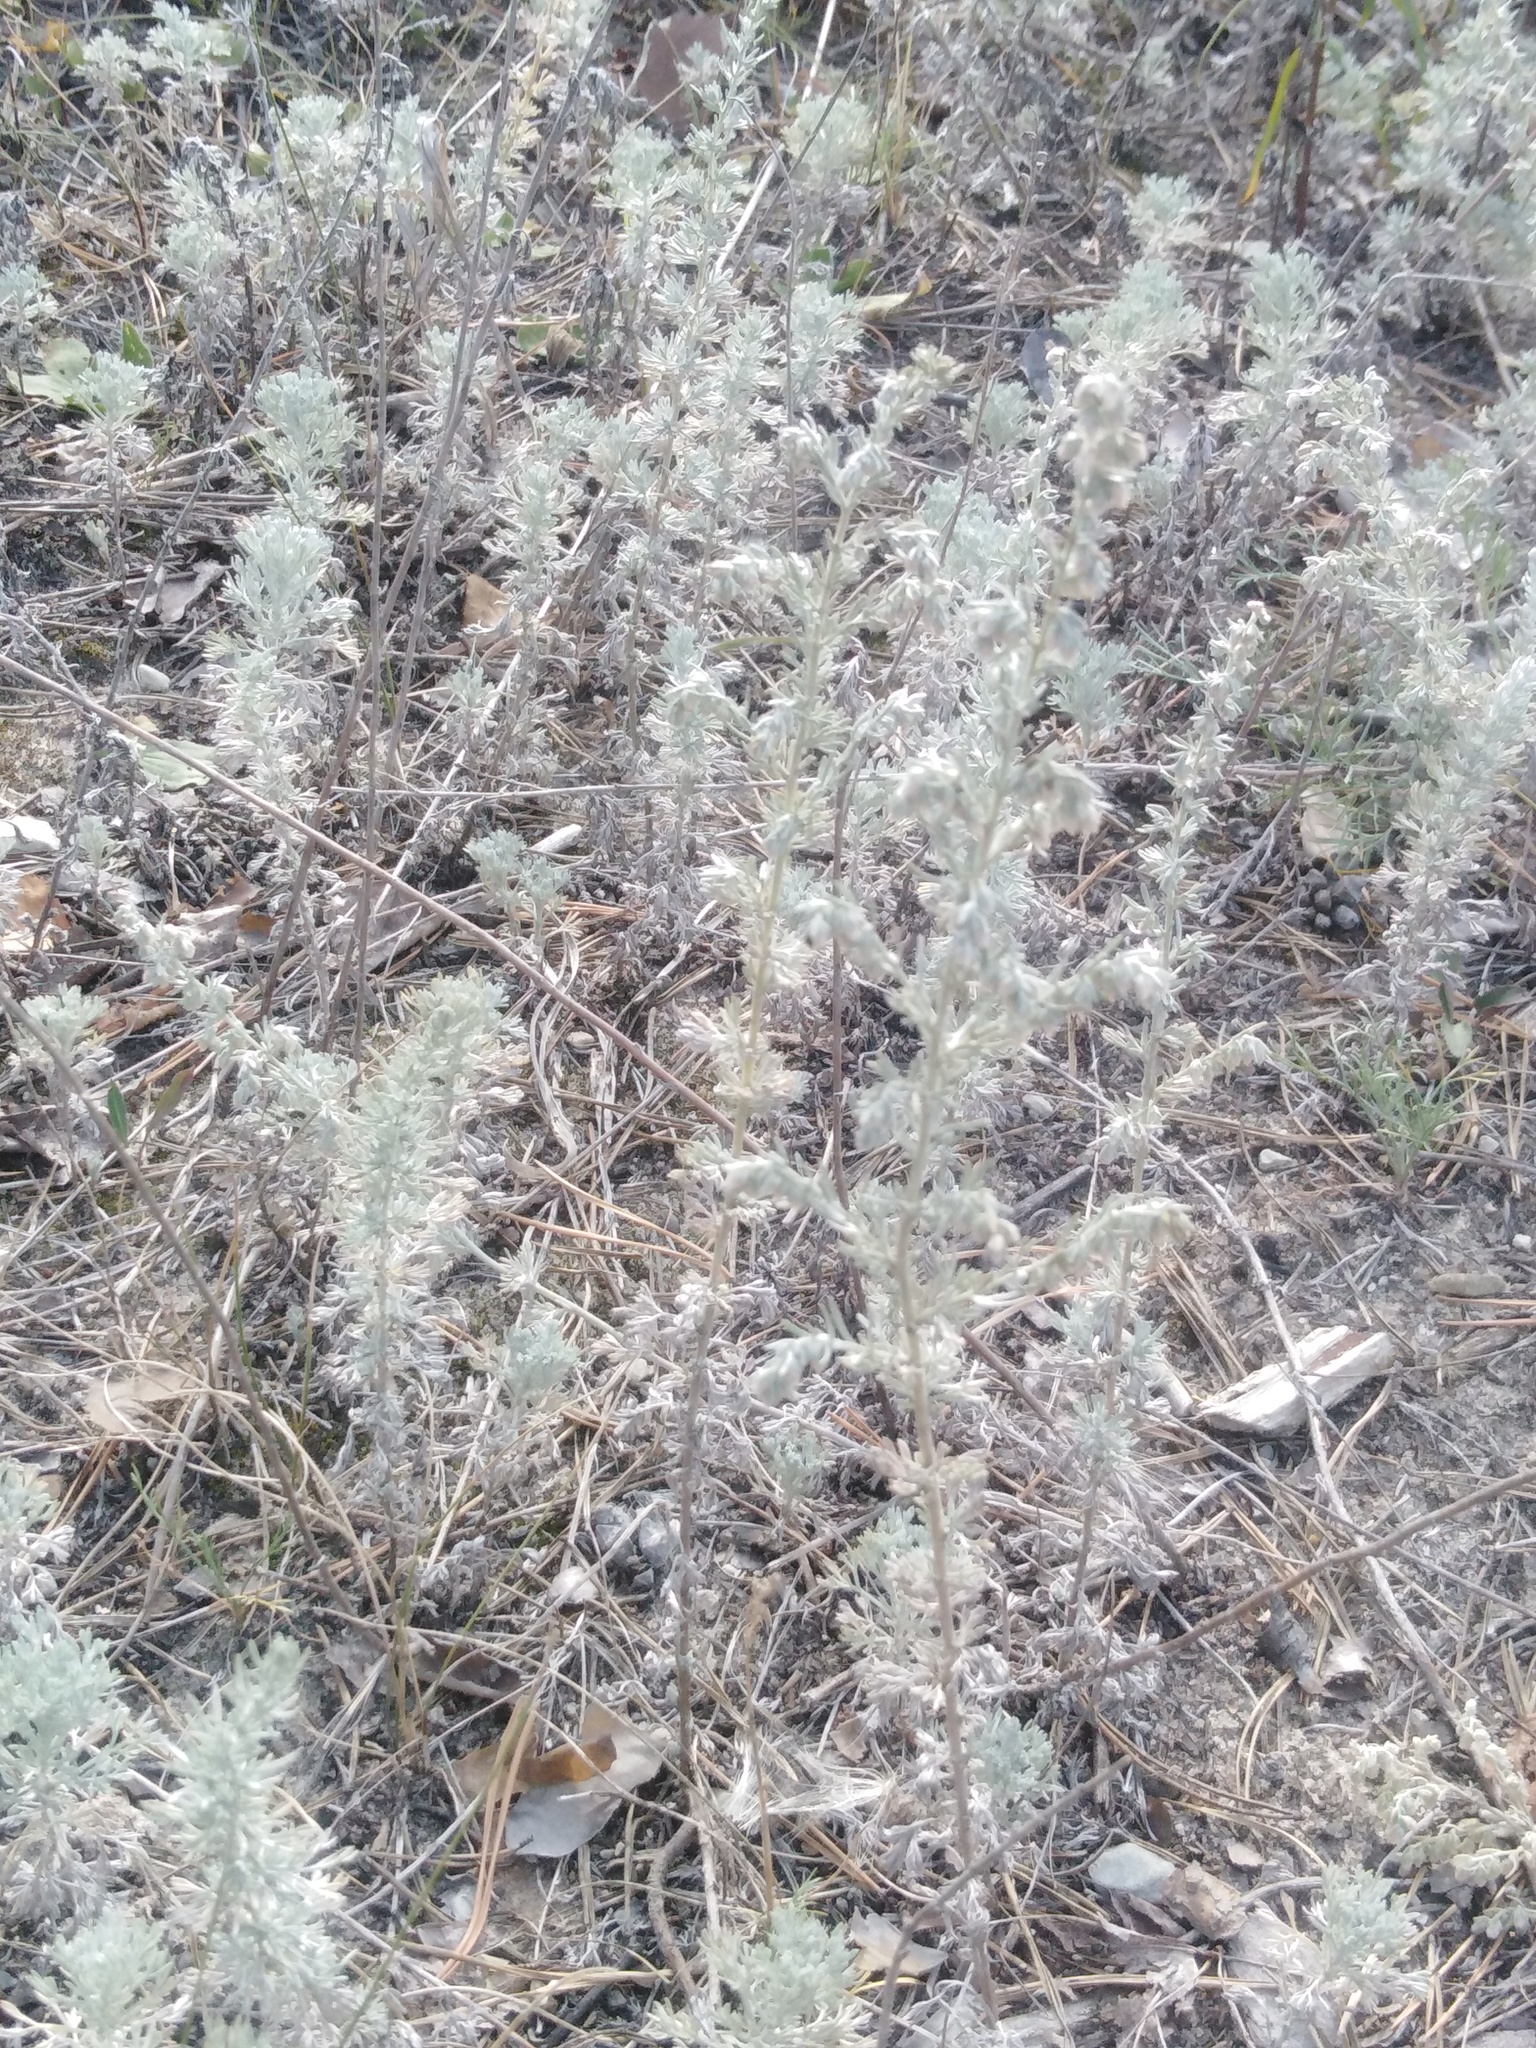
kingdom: Plantae
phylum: Tracheophyta
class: Magnoliopsida
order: Asterales
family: Asteraceae
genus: Artemisia
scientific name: Artemisia austriaca
